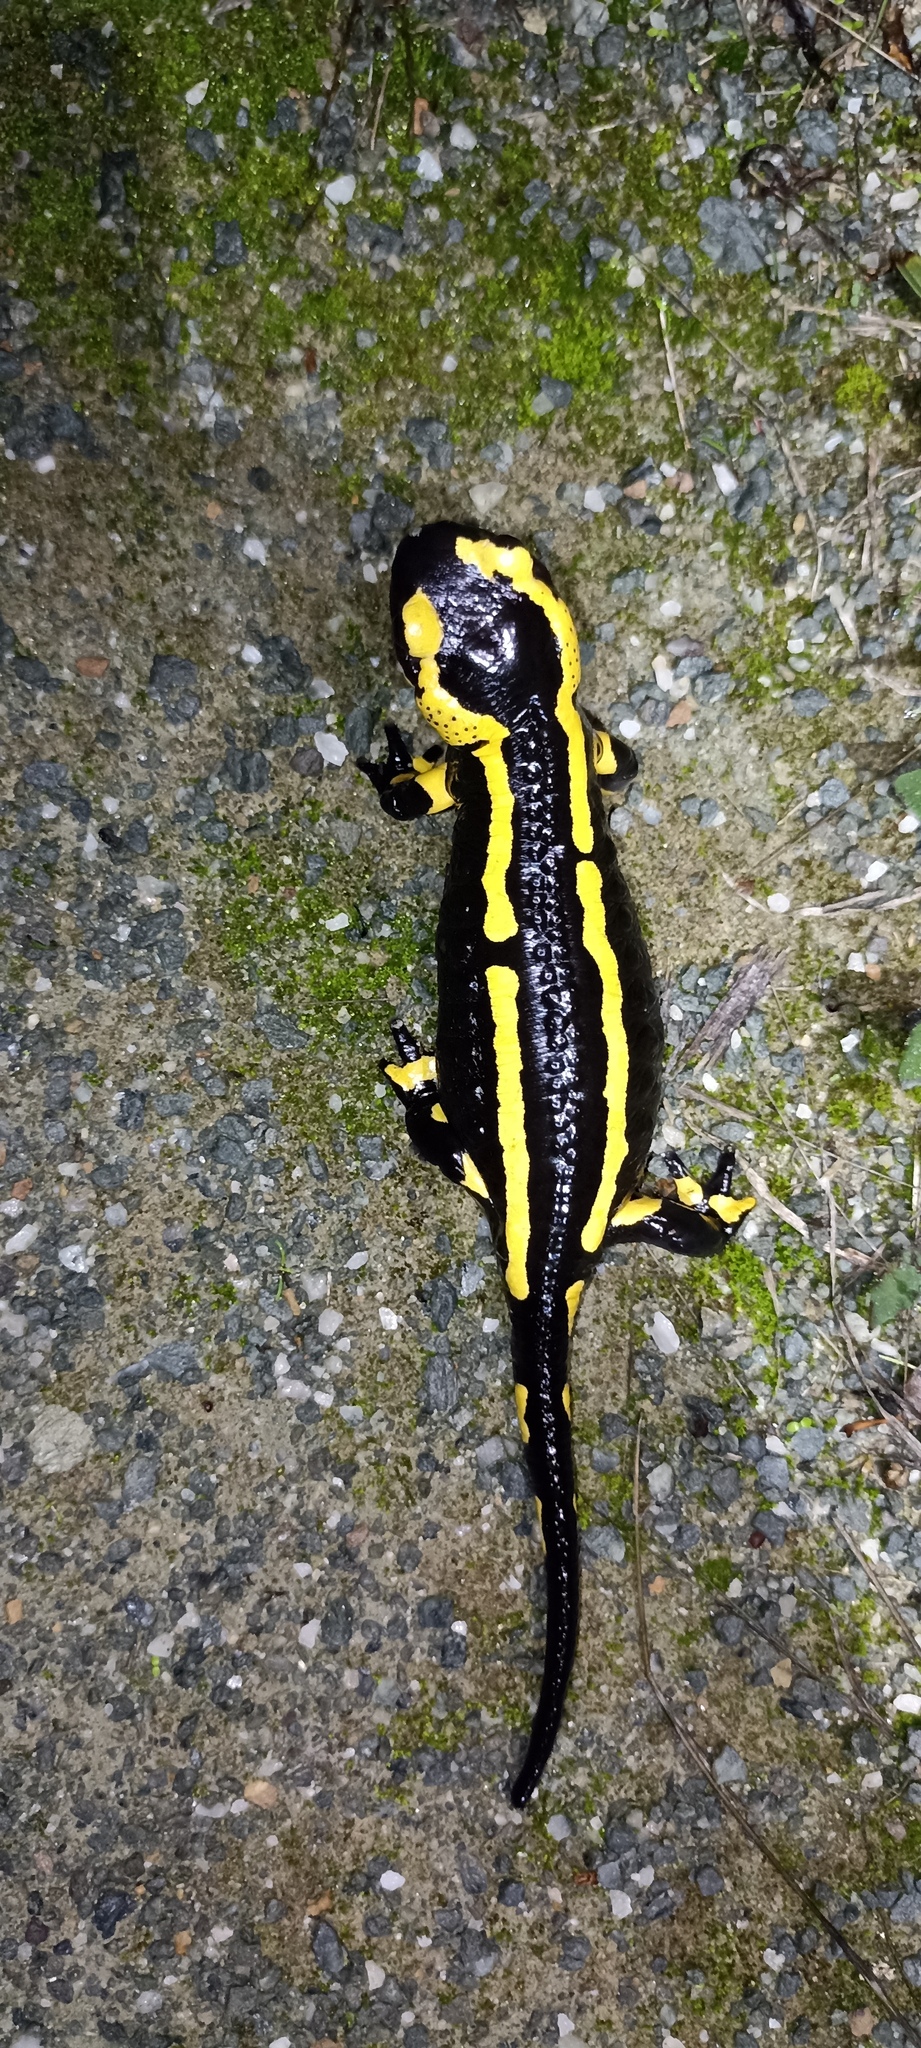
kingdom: Animalia
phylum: Chordata
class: Amphibia
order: Caudata
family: Salamandridae
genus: Salamandra
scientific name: Salamandra salamandra
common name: Fire salamander
